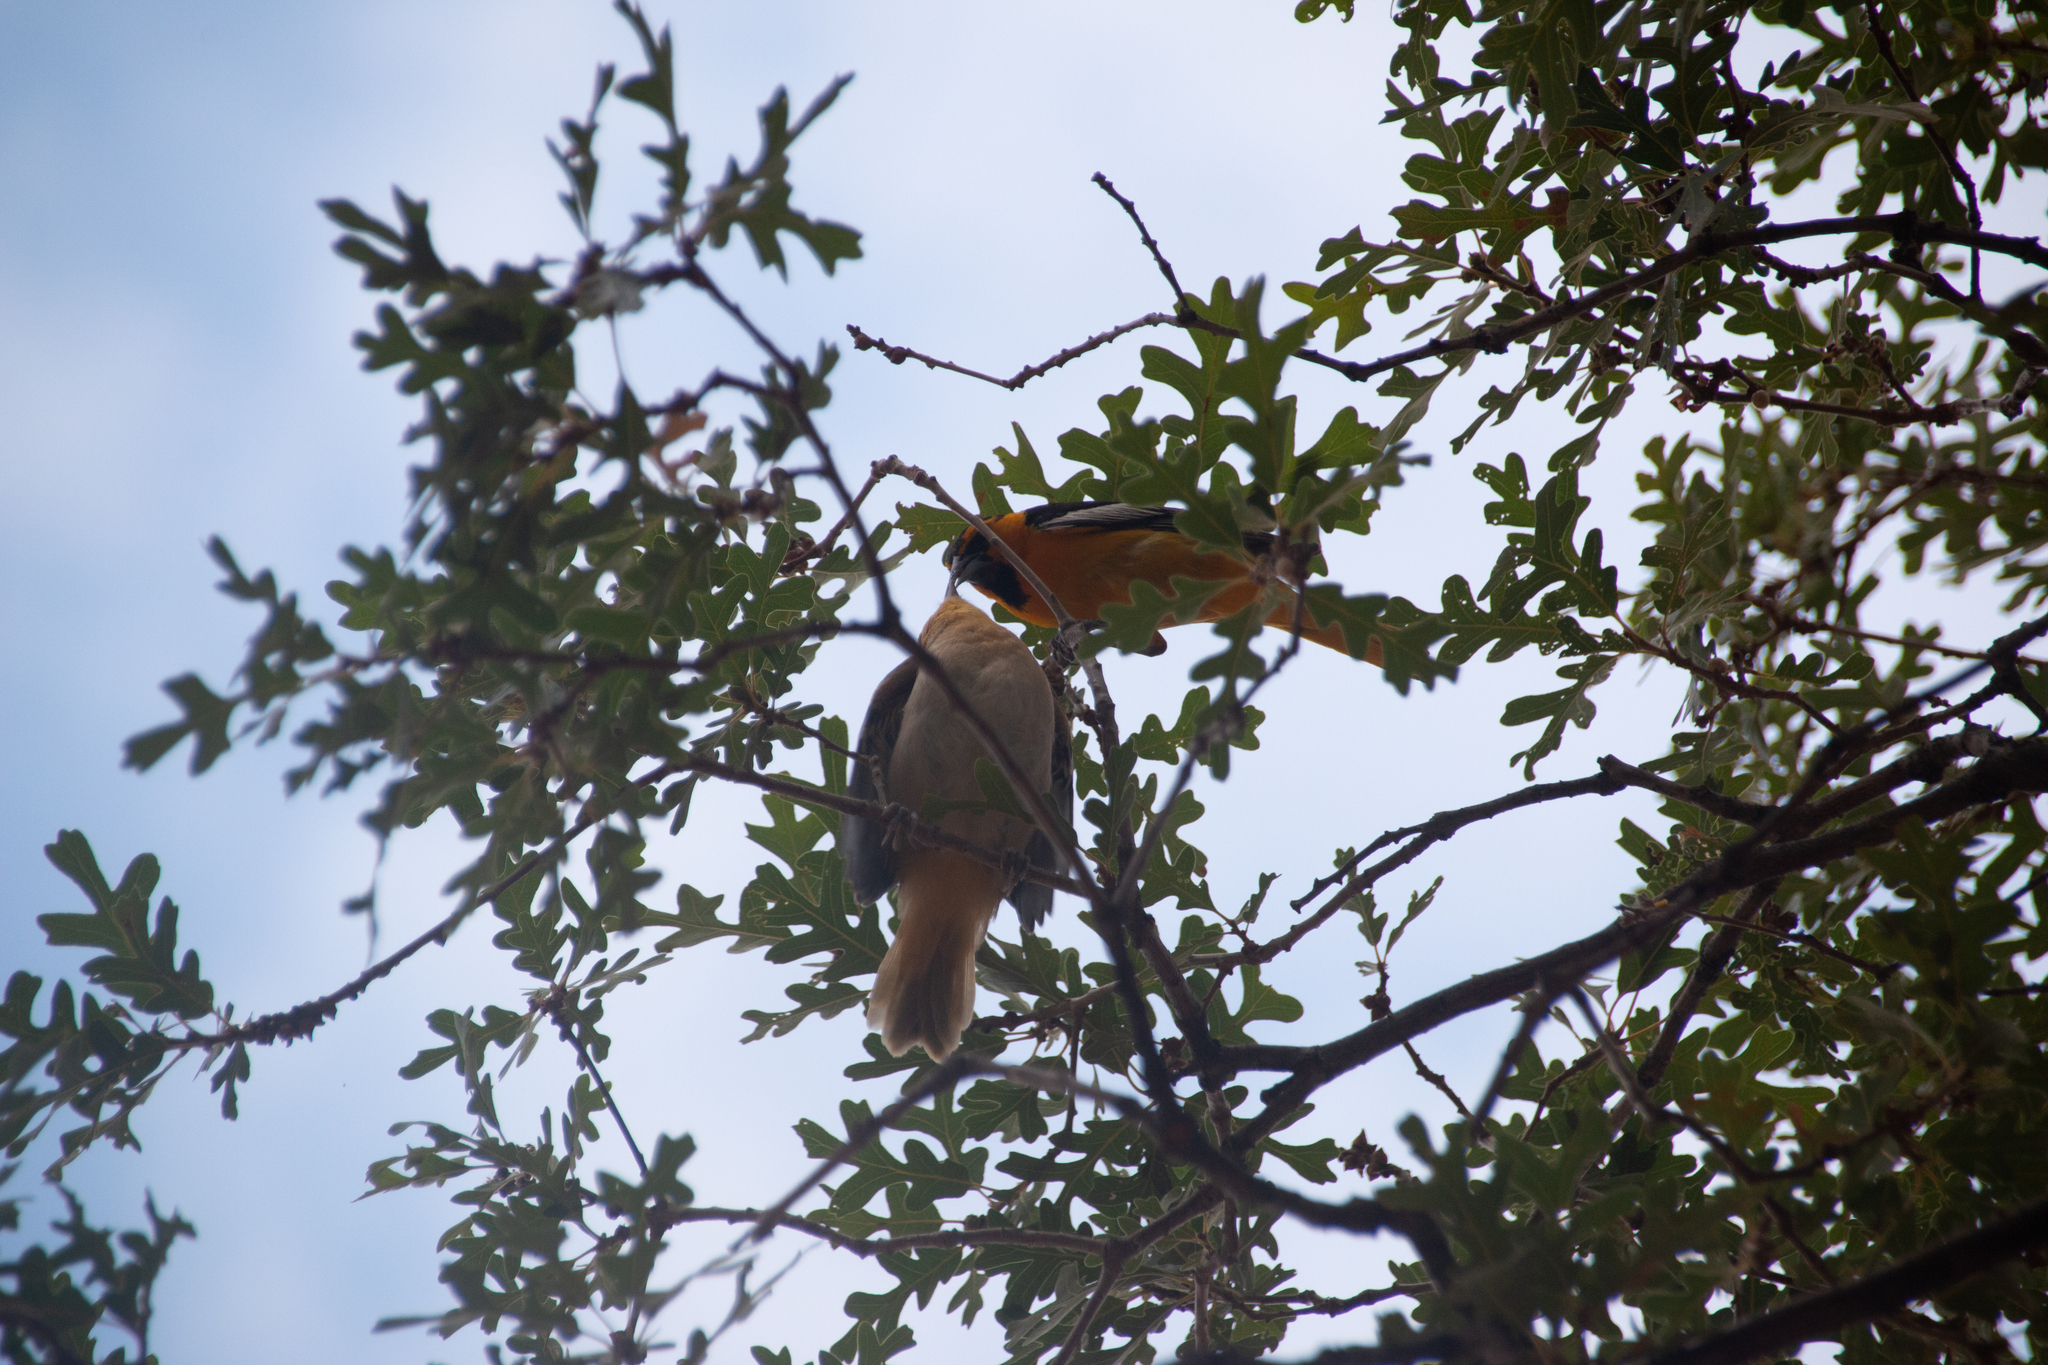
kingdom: Animalia
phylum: Chordata
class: Aves
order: Passeriformes
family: Icteridae
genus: Icterus
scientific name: Icterus bullockii
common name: Bullock's oriole
